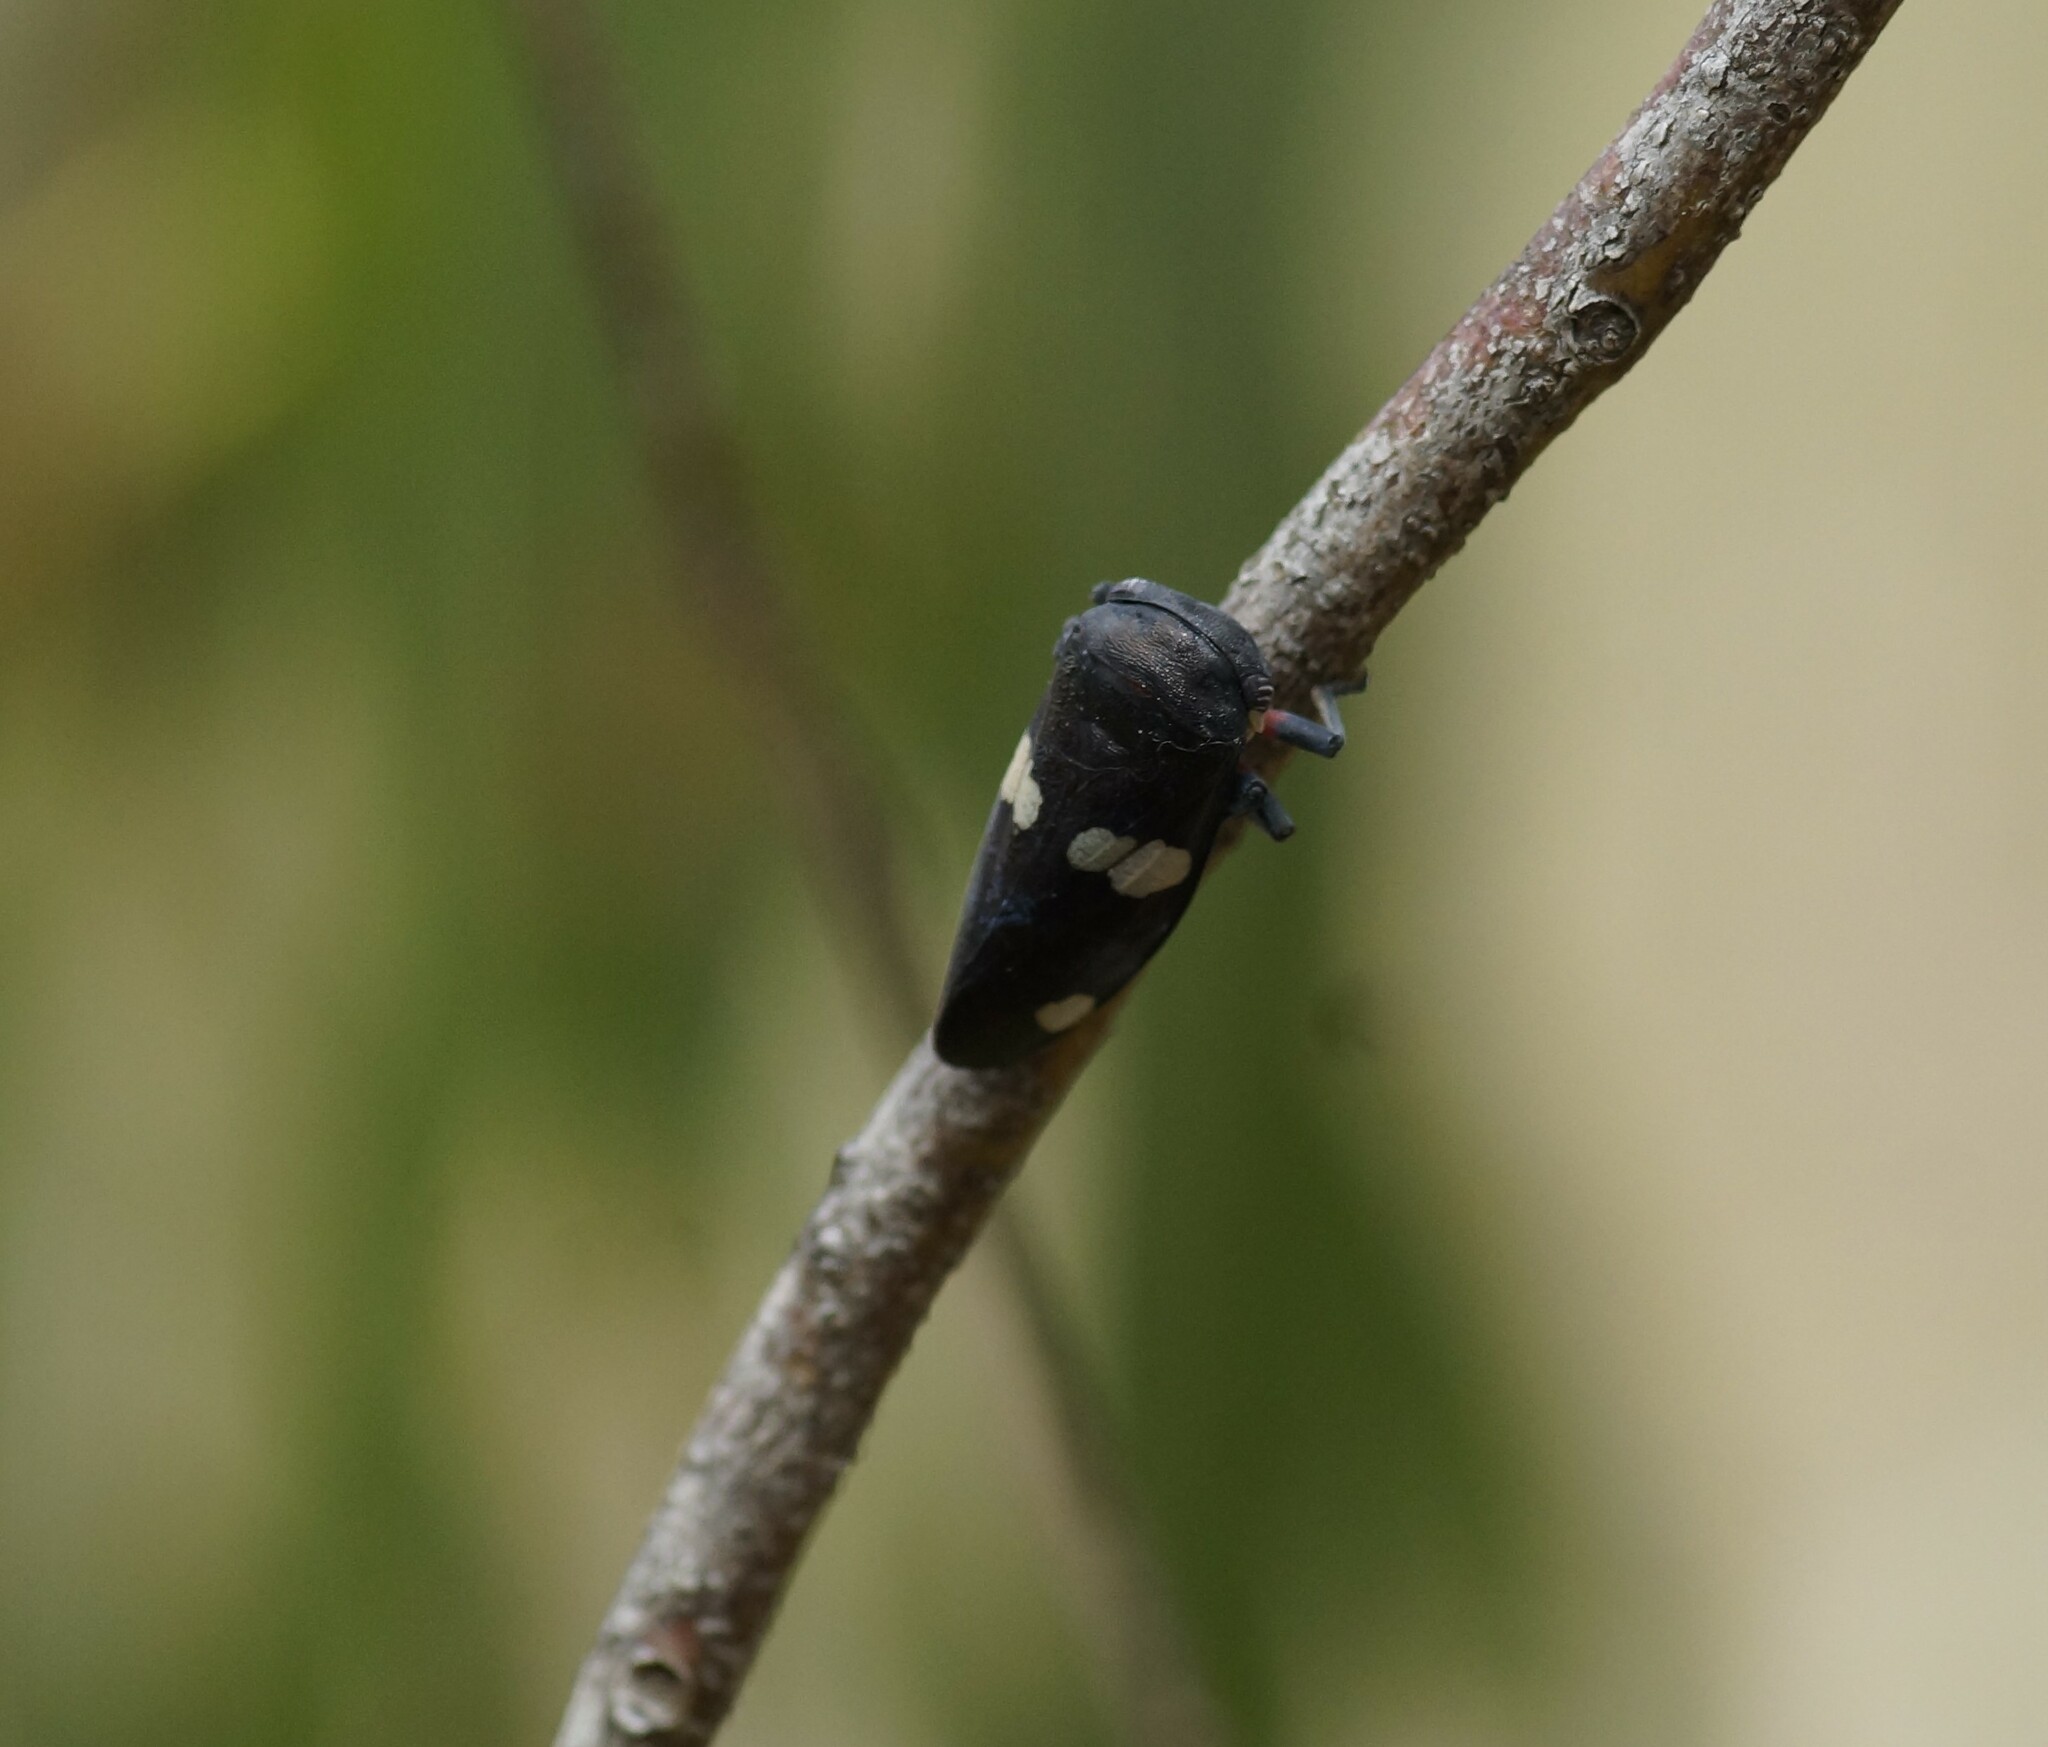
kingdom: Animalia
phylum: Arthropoda
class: Insecta
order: Hemiptera
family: Cicadellidae
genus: Eurymela
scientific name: Eurymela distincta
